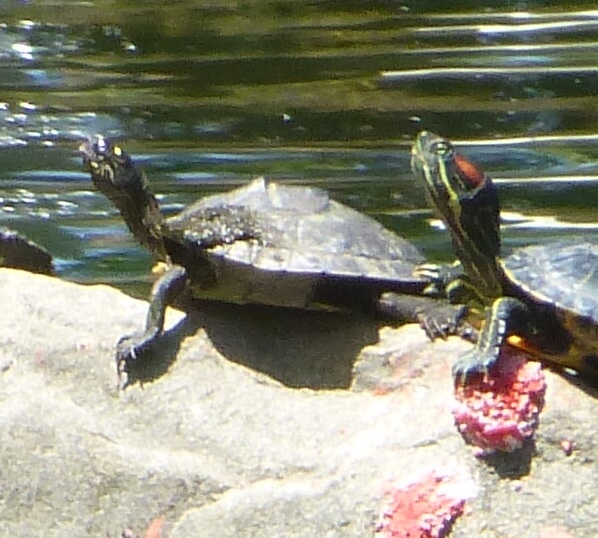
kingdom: Animalia
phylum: Chordata
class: Testudines
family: Emydidae
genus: Graptemys
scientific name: Graptemys ouachitensis
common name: Ouachita map turtle
